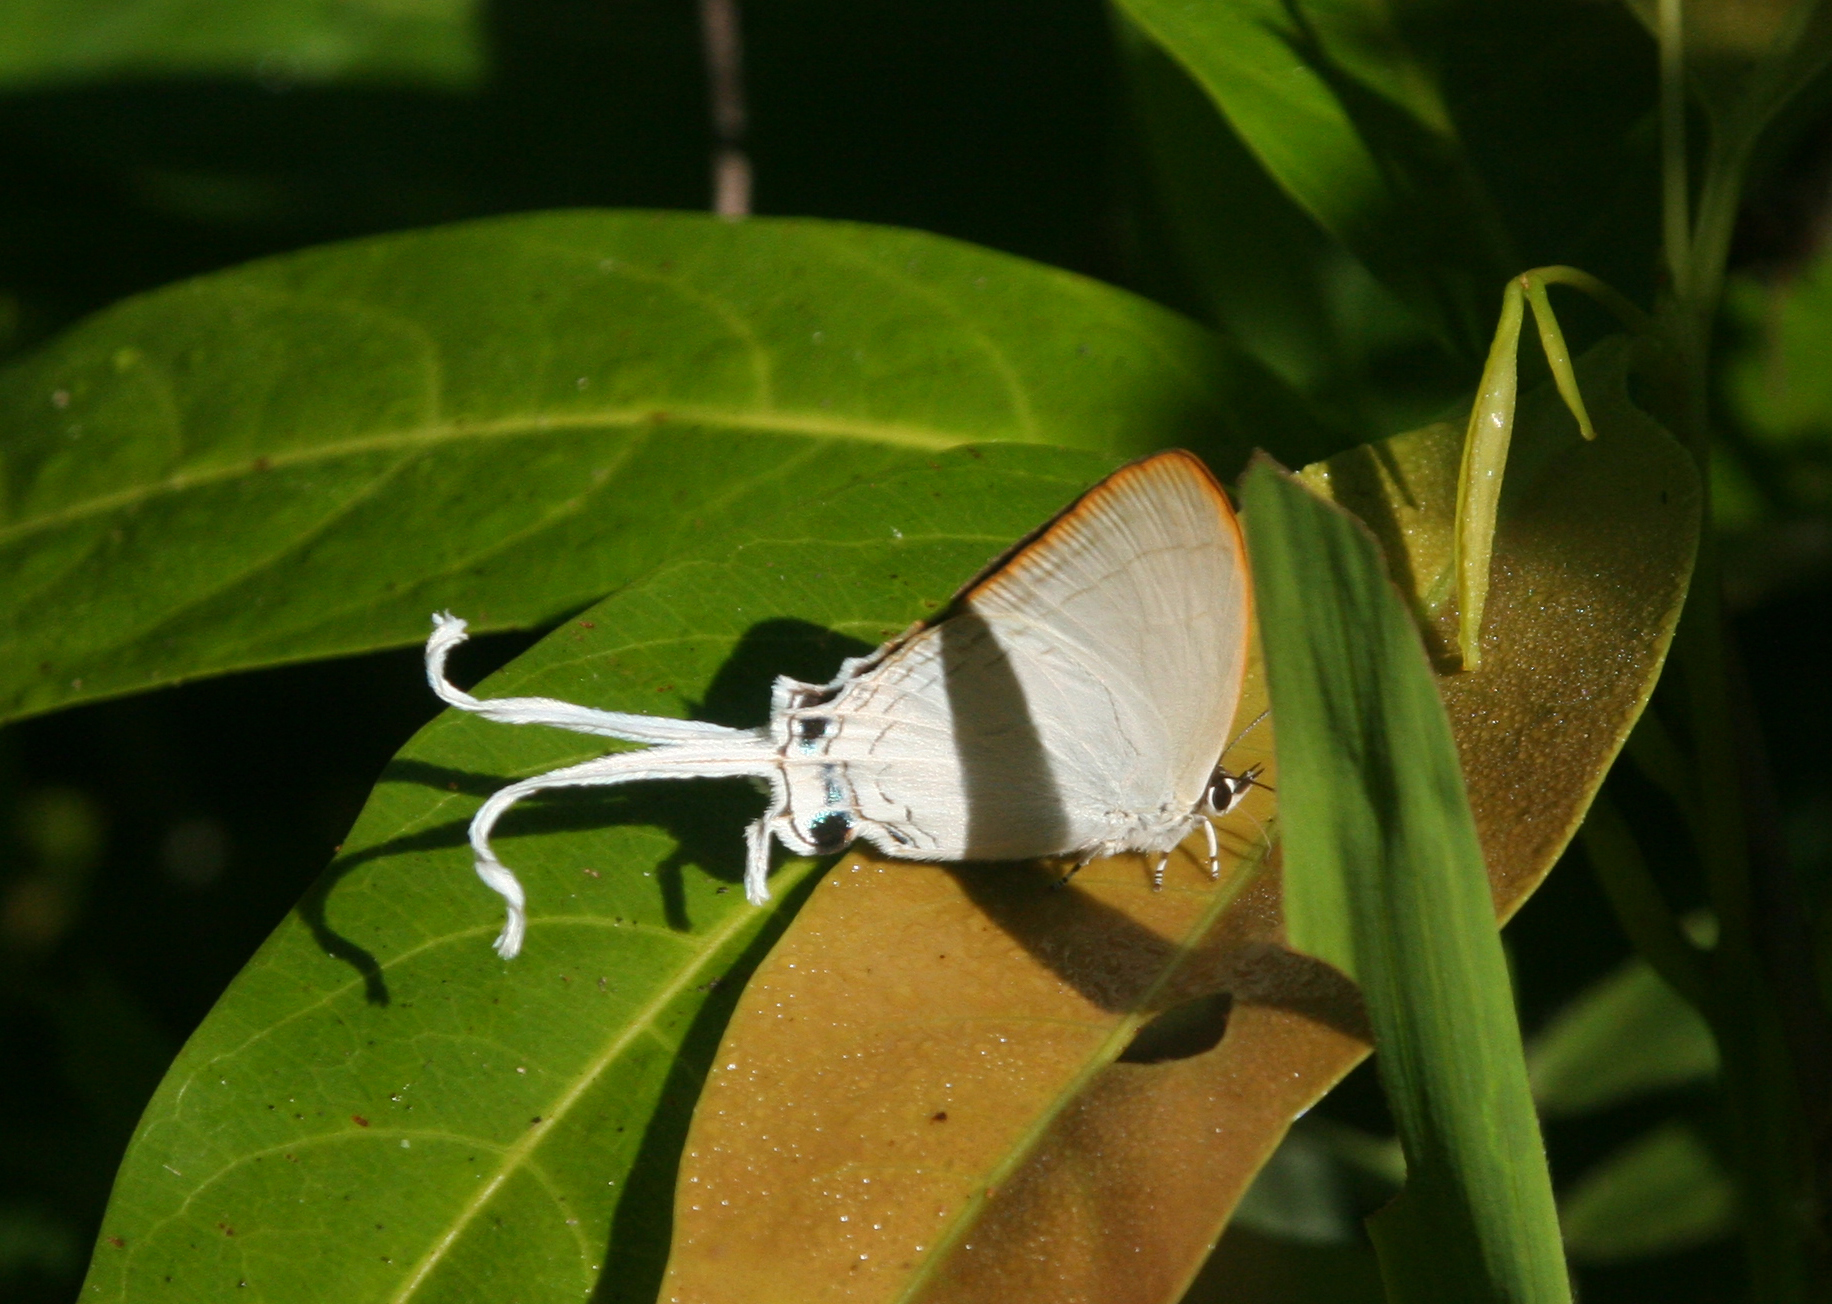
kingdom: Animalia
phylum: Arthropoda
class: Insecta
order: Lepidoptera
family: Lycaenidae
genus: Cheritra
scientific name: Cheritra freja
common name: Common imperial
